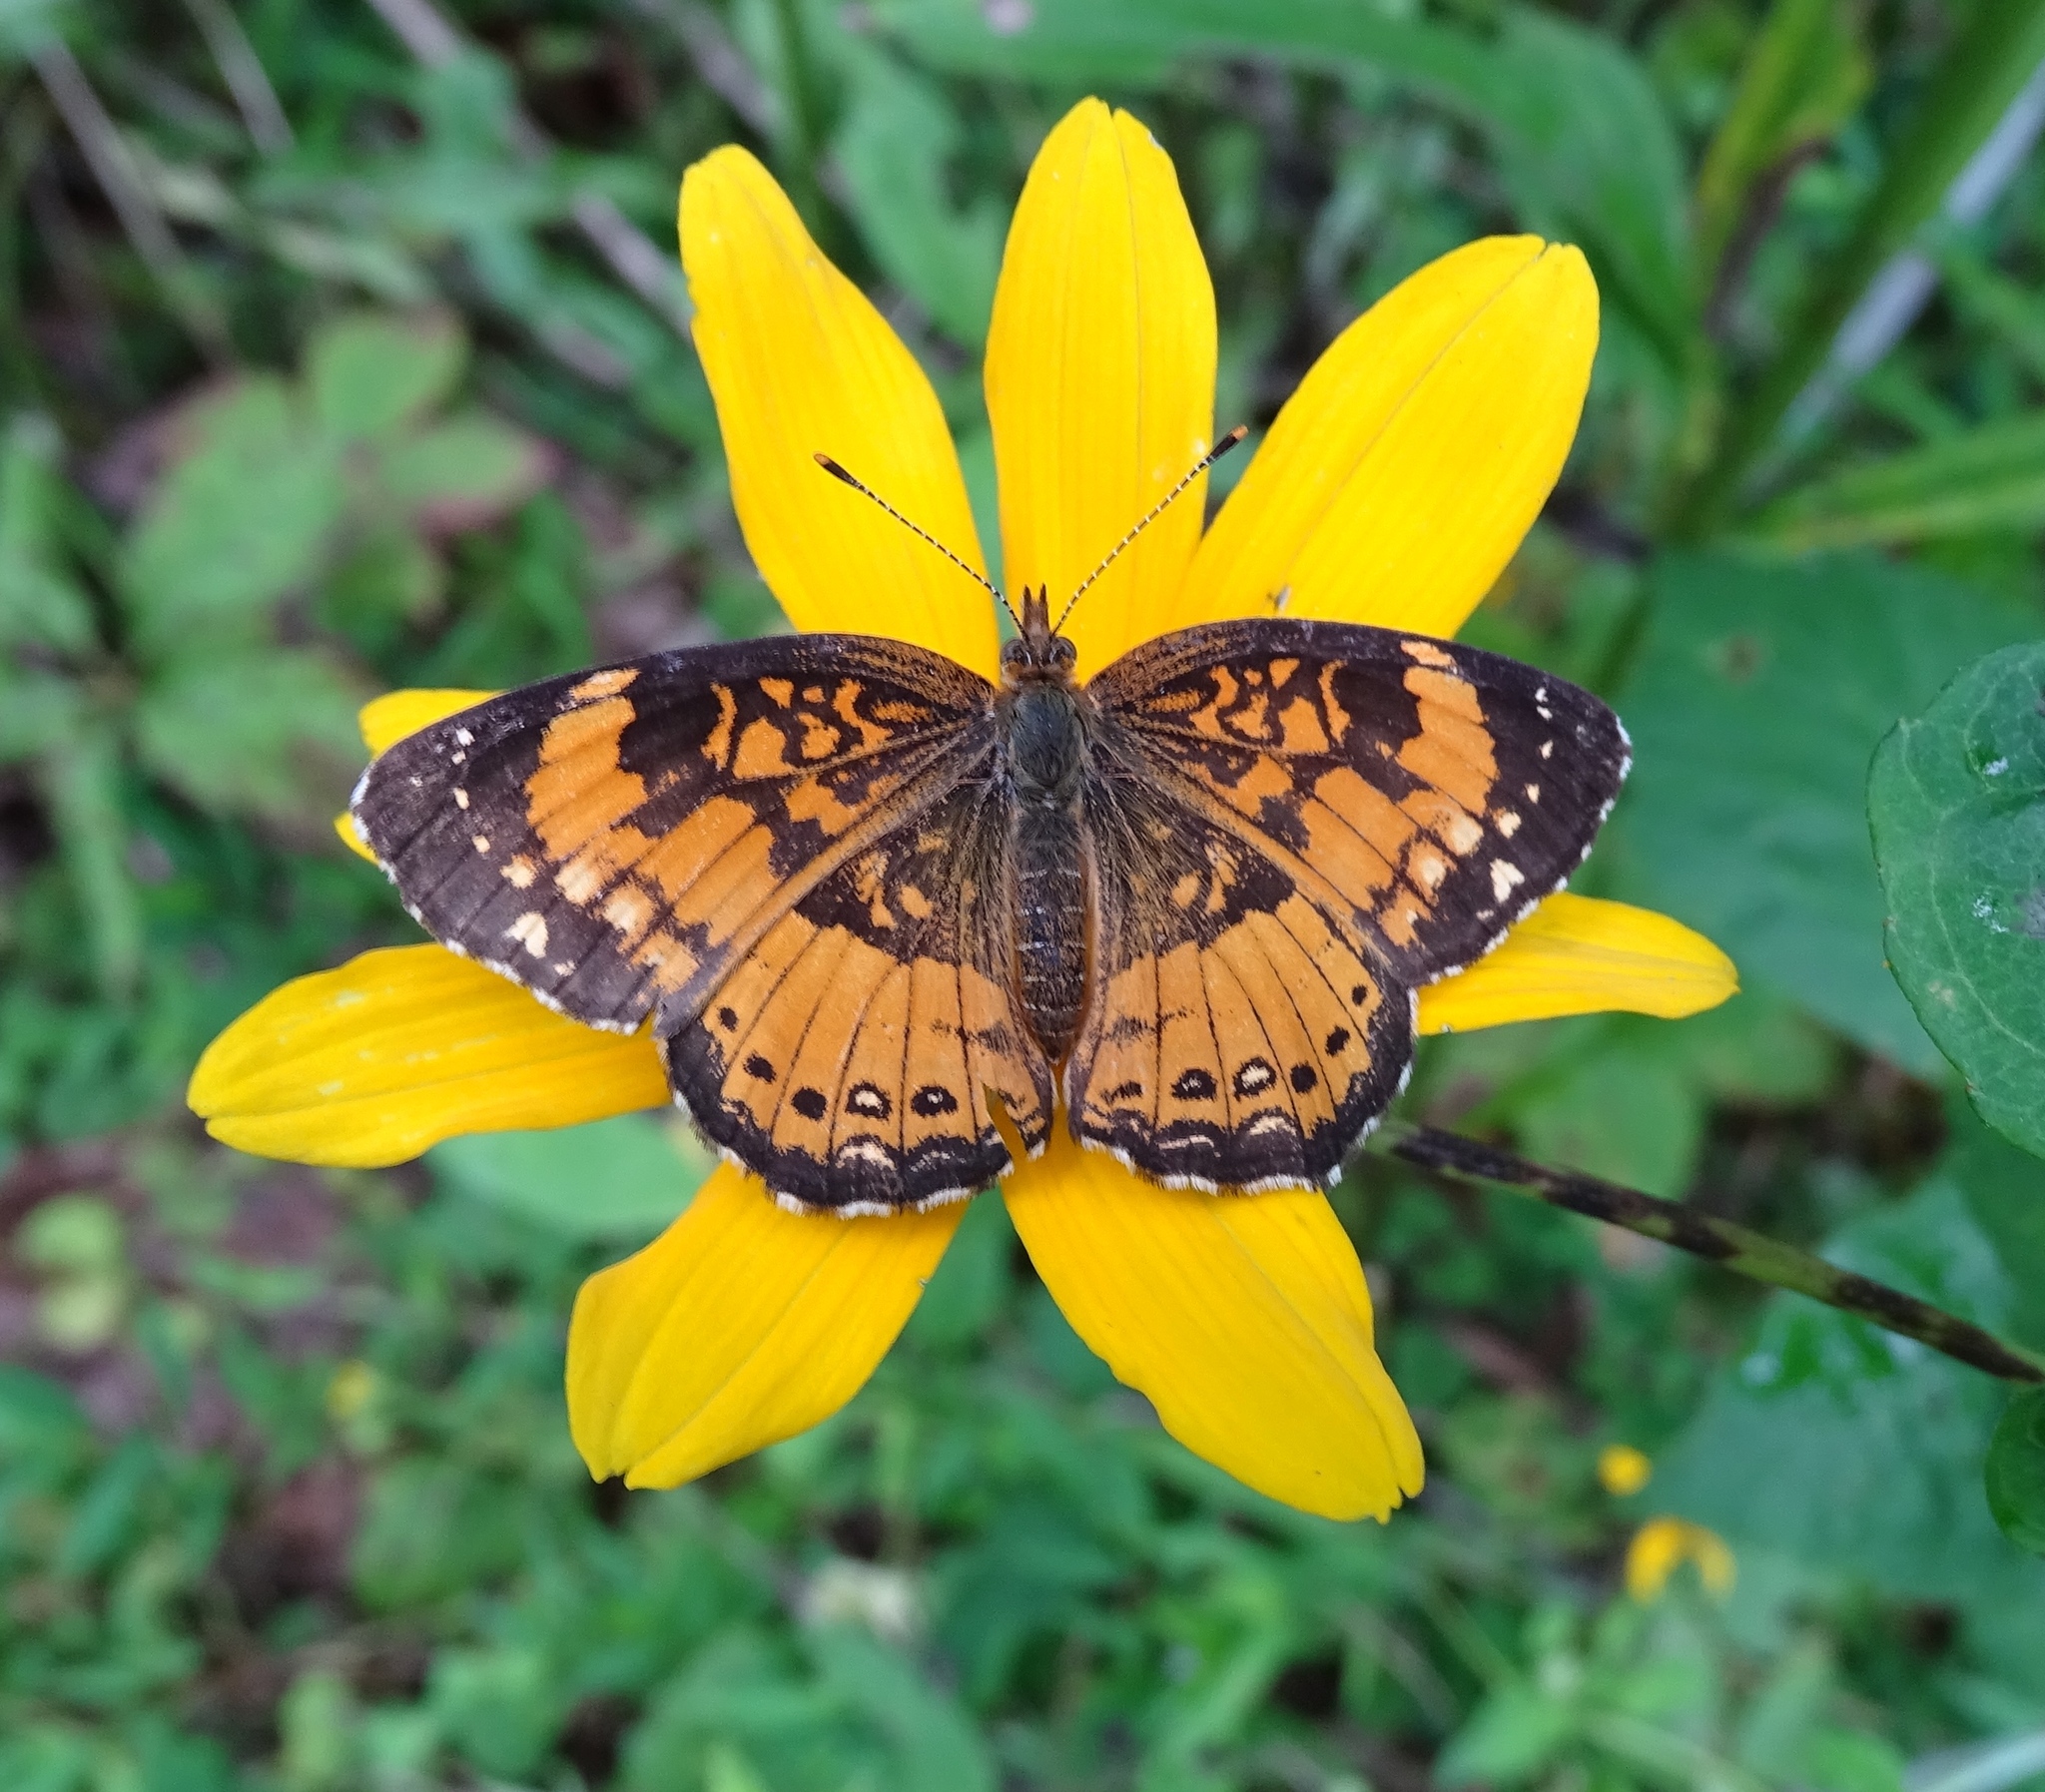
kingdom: Animalia
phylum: Arthropoda
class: Insecta
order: Lepidoptera
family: Nymphalidae
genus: Chlosyne
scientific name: Chlosyne nycteis
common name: Silvery checkerspot
